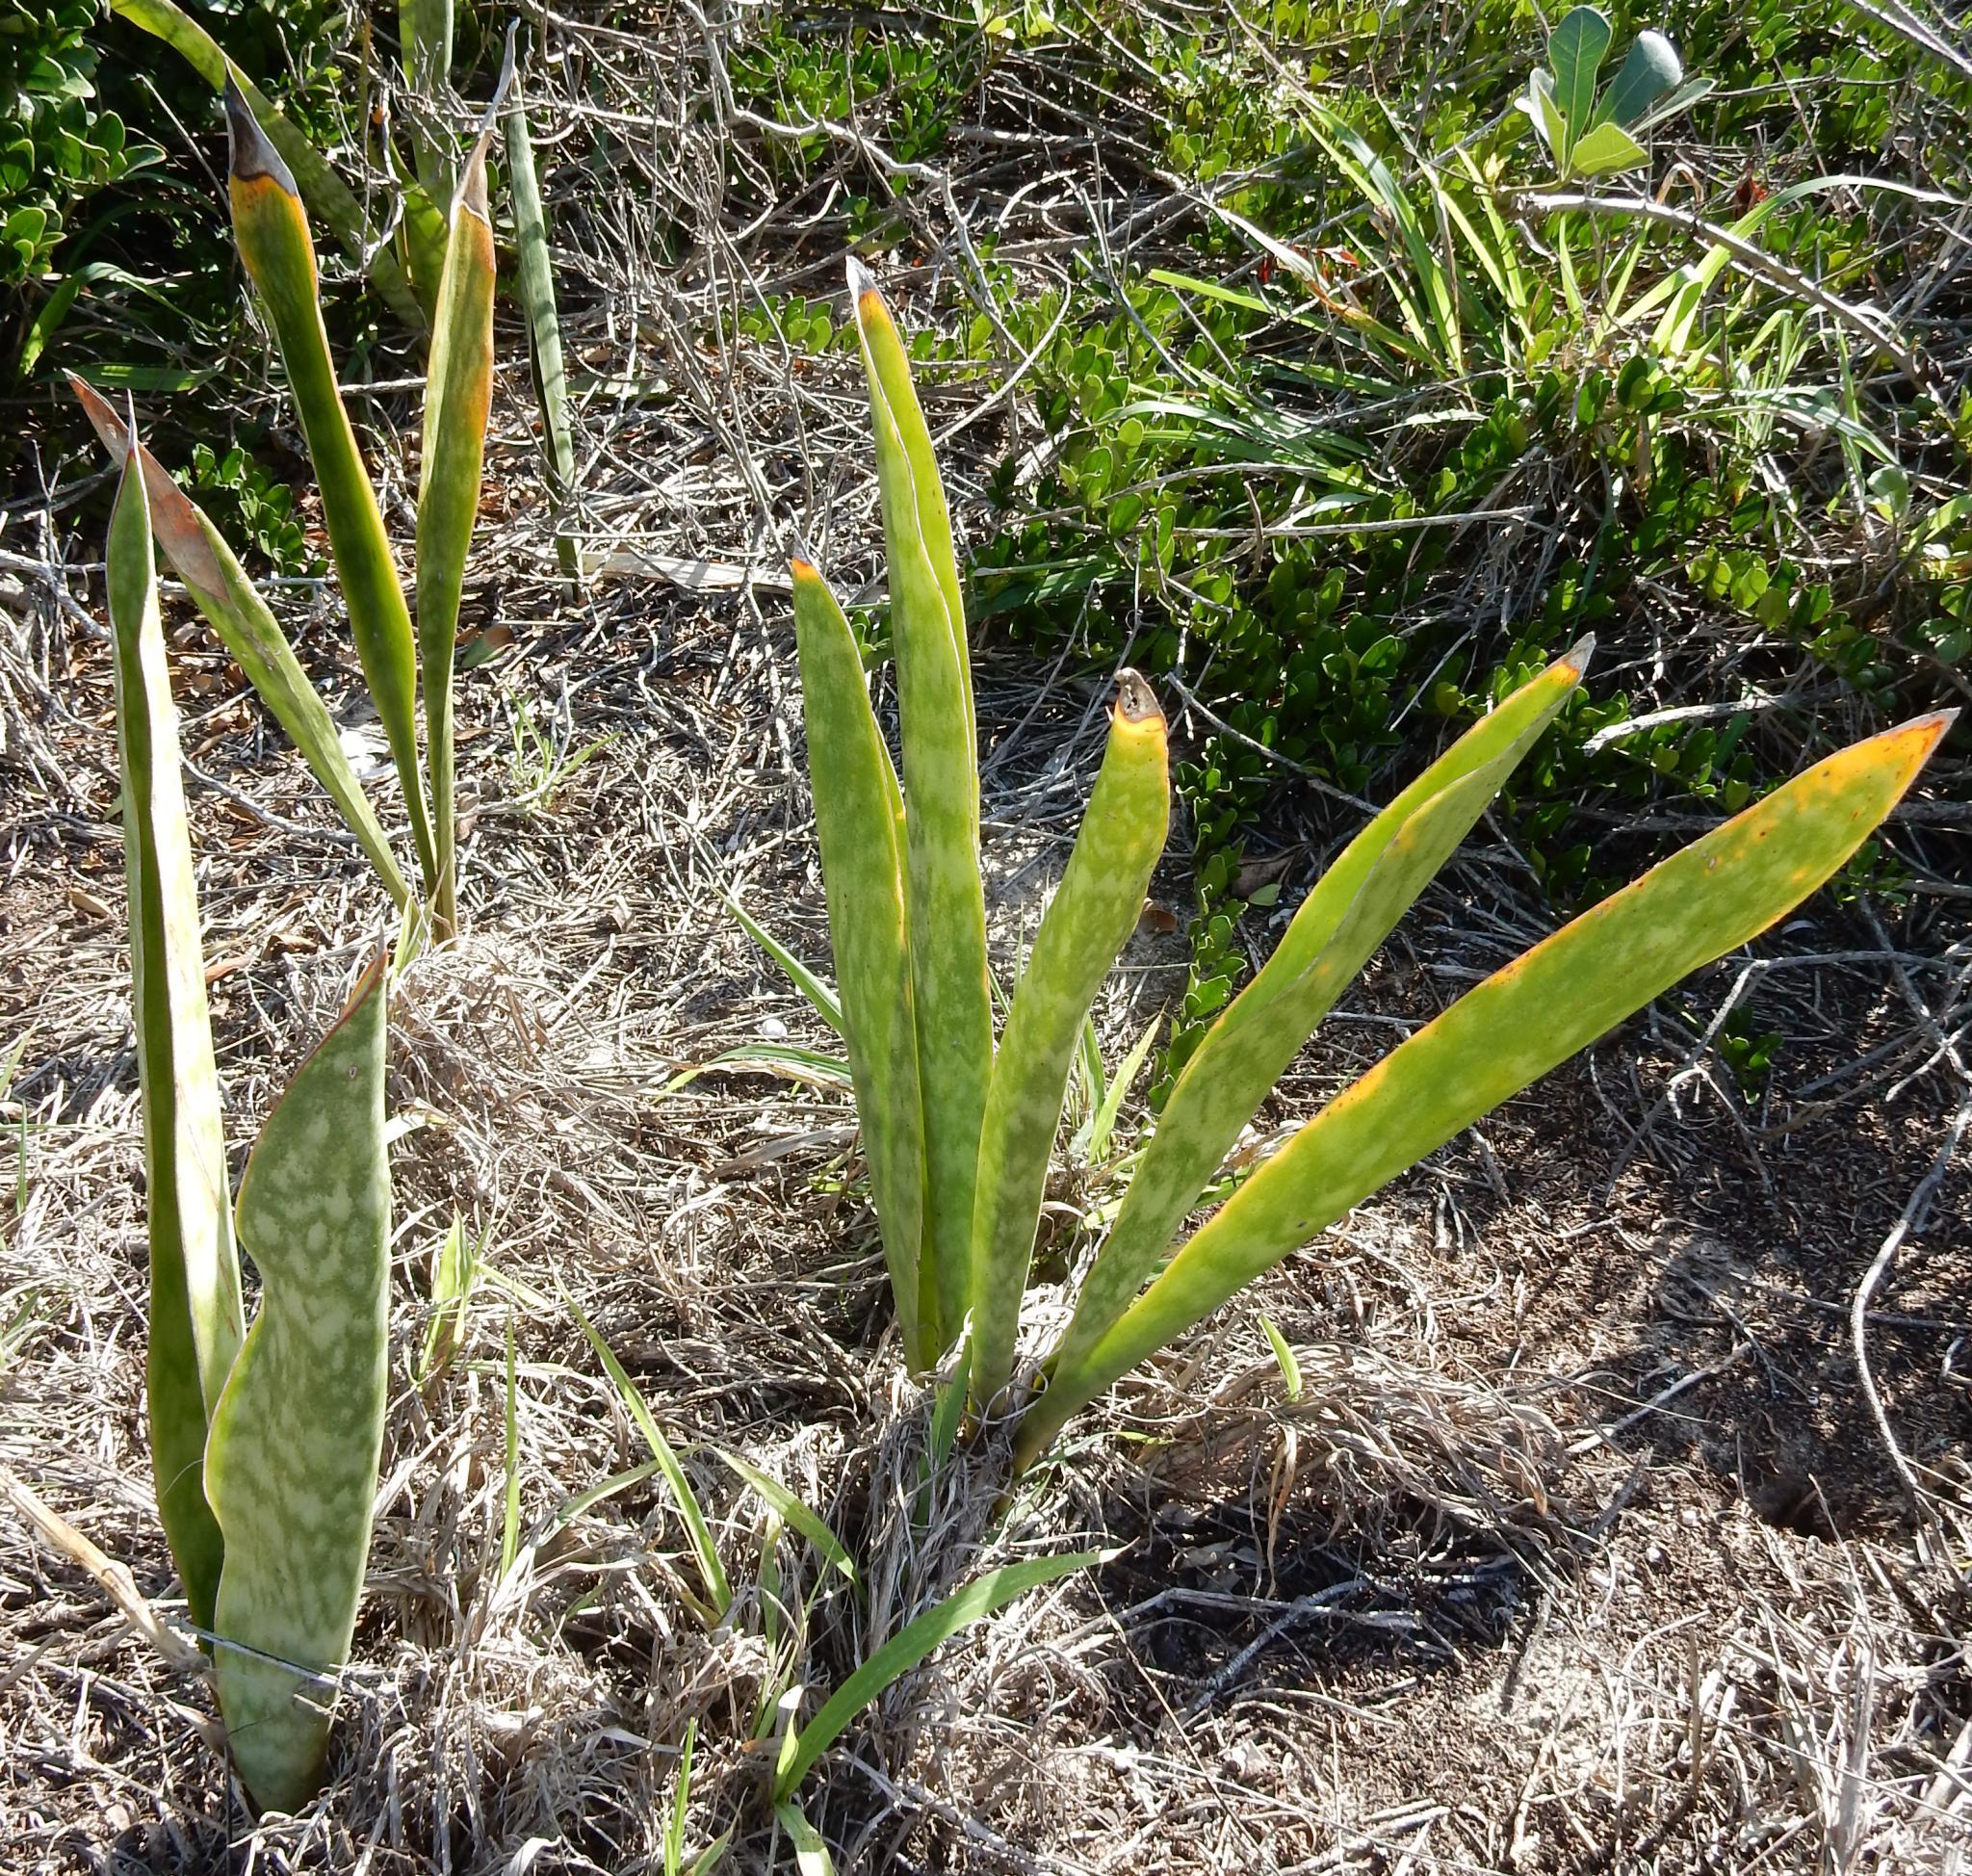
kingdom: Plantae
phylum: Tracheophyta
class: Liliopsida
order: Asparagales
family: Asparagaceae
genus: Dracaena
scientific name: Dracaena hyacinthoides
